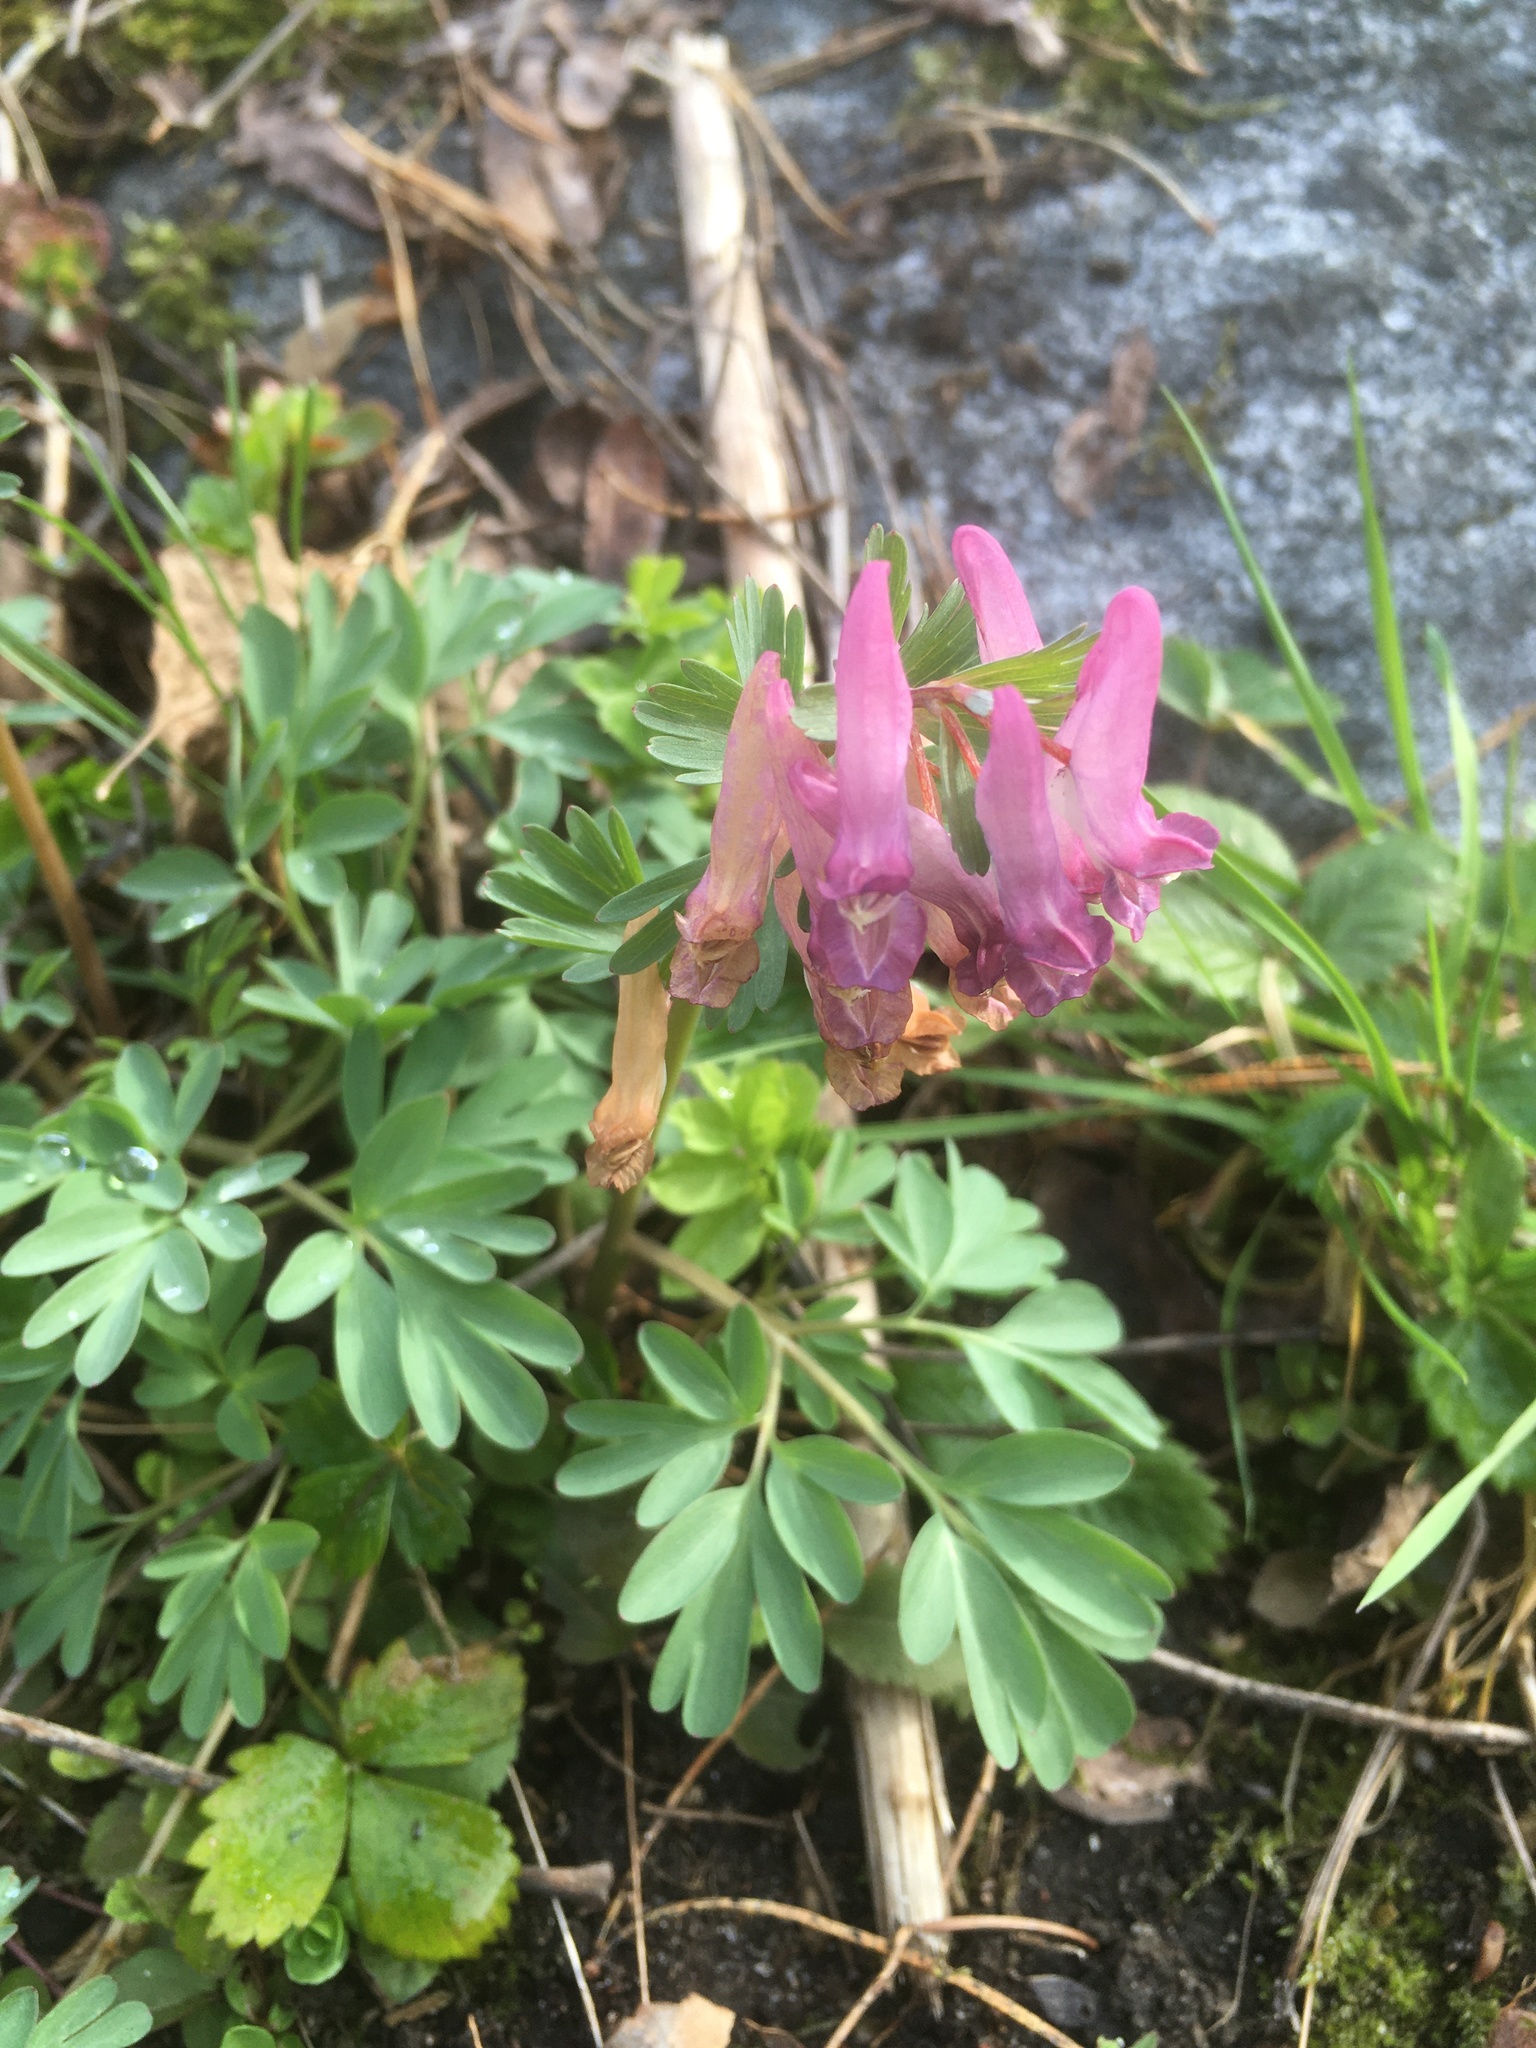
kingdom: Plantae
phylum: Tracheophyta
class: Magnoliopsida
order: Ranunculales
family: Papaveraceae
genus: Corydalis
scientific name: Corydalis solida
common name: Bird-in-a-bush
